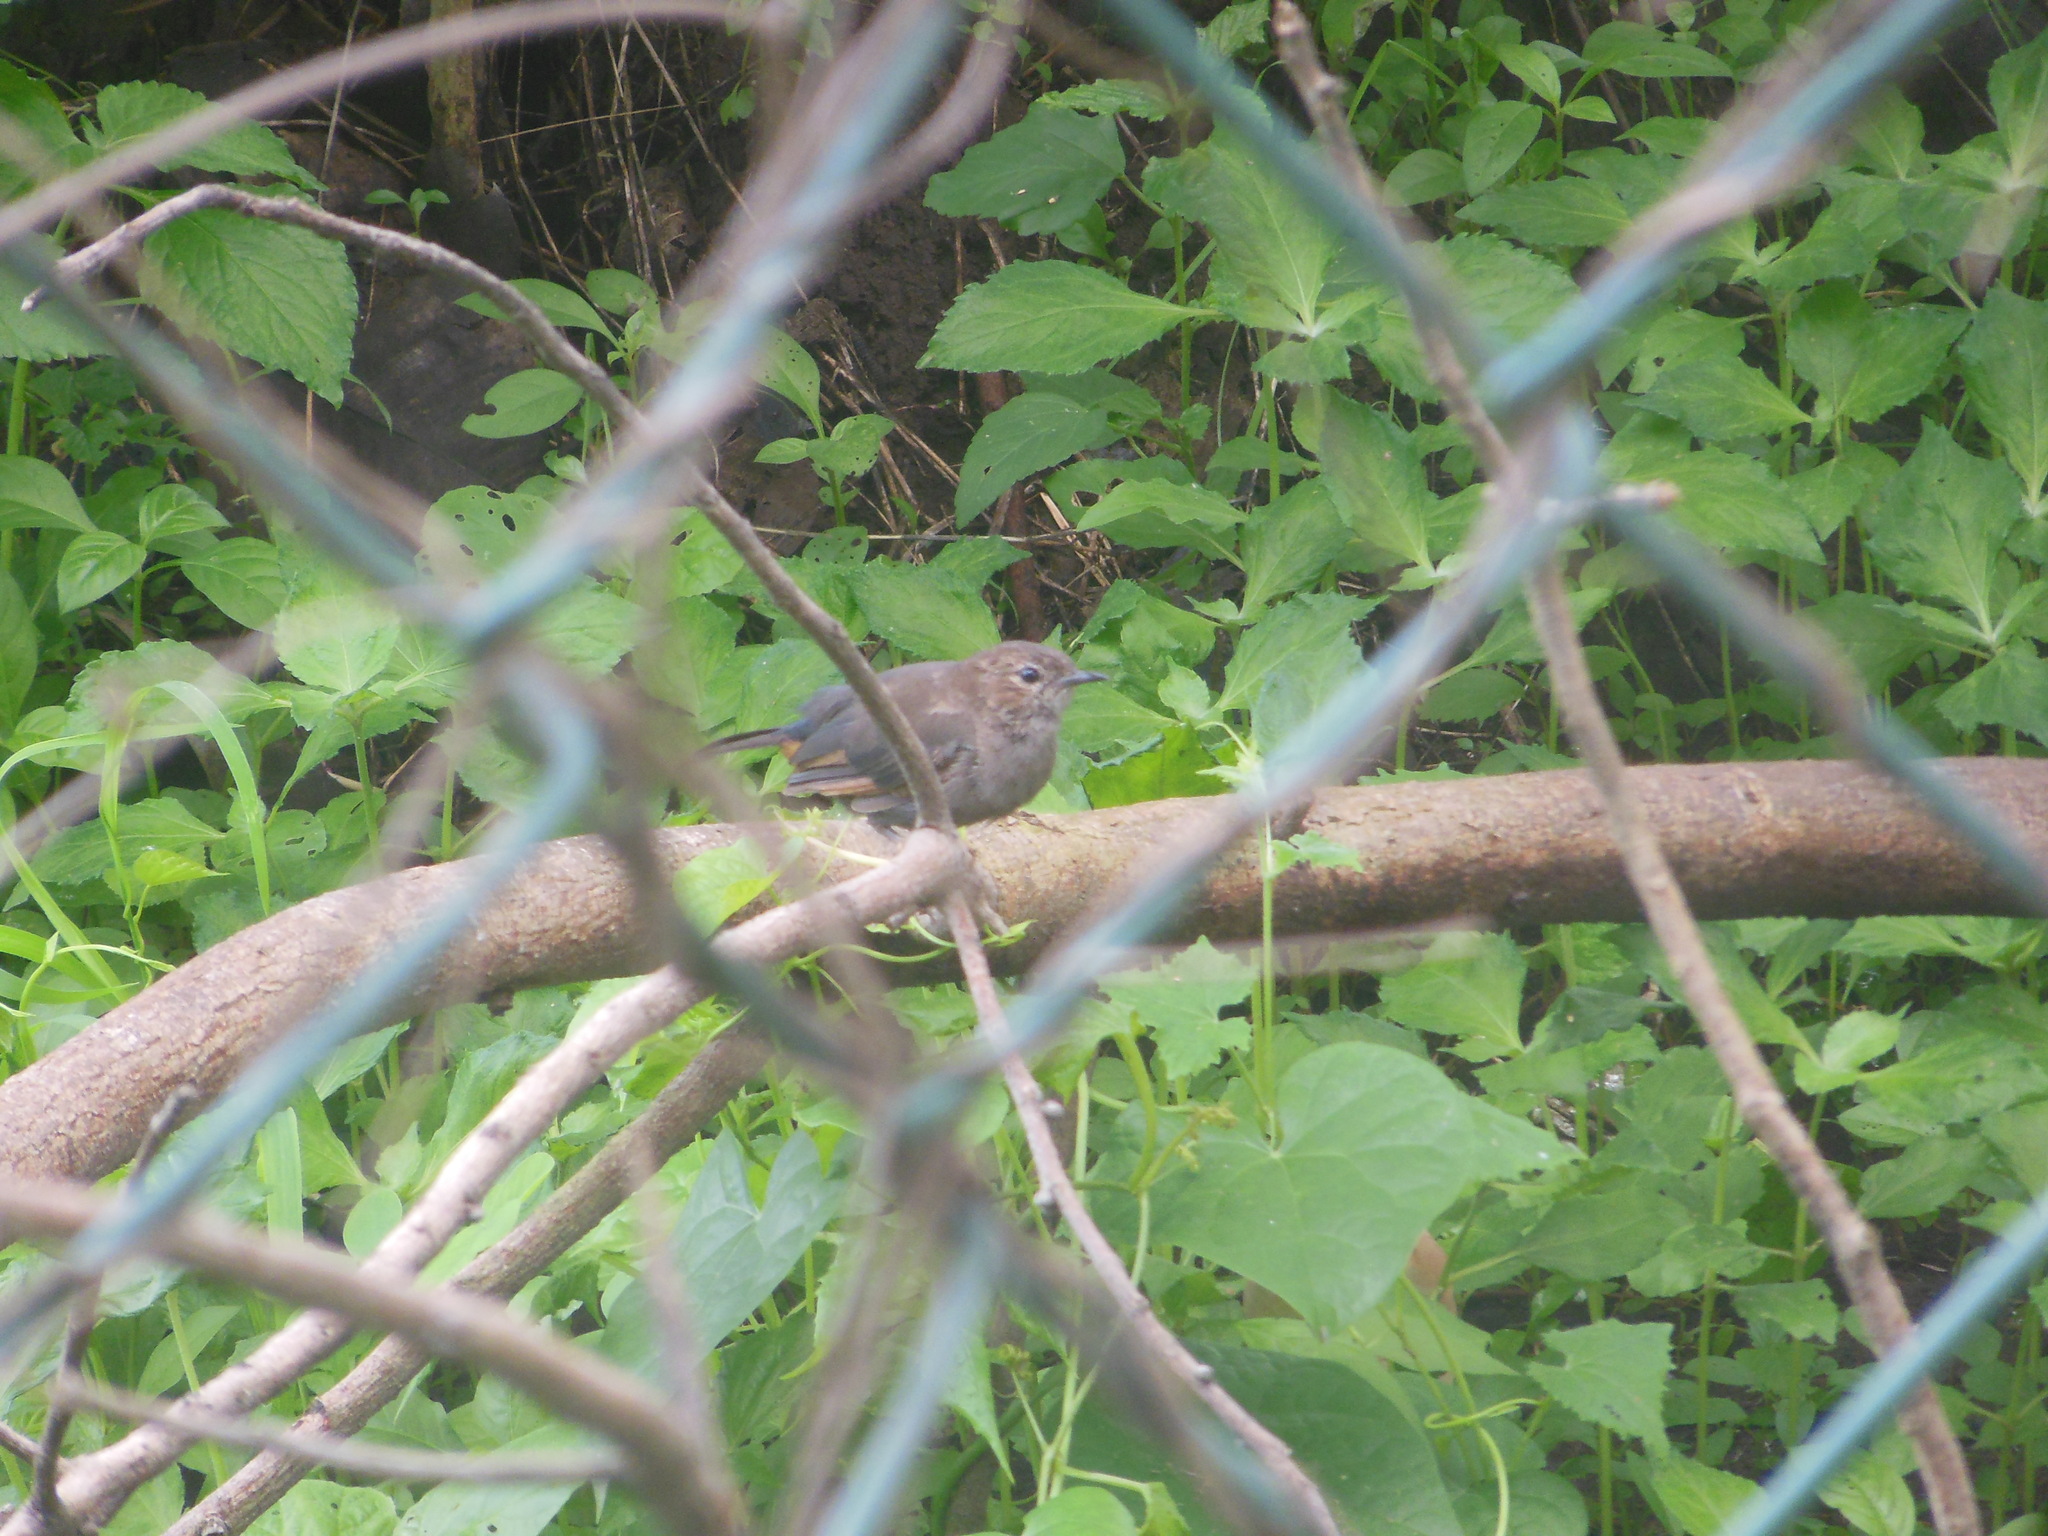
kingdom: Animalia
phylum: Chordata
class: Aves
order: Passeriformes
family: Muscicapidae
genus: Saxicoloides
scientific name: Saxicoloides fulicatus
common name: Indian robin
